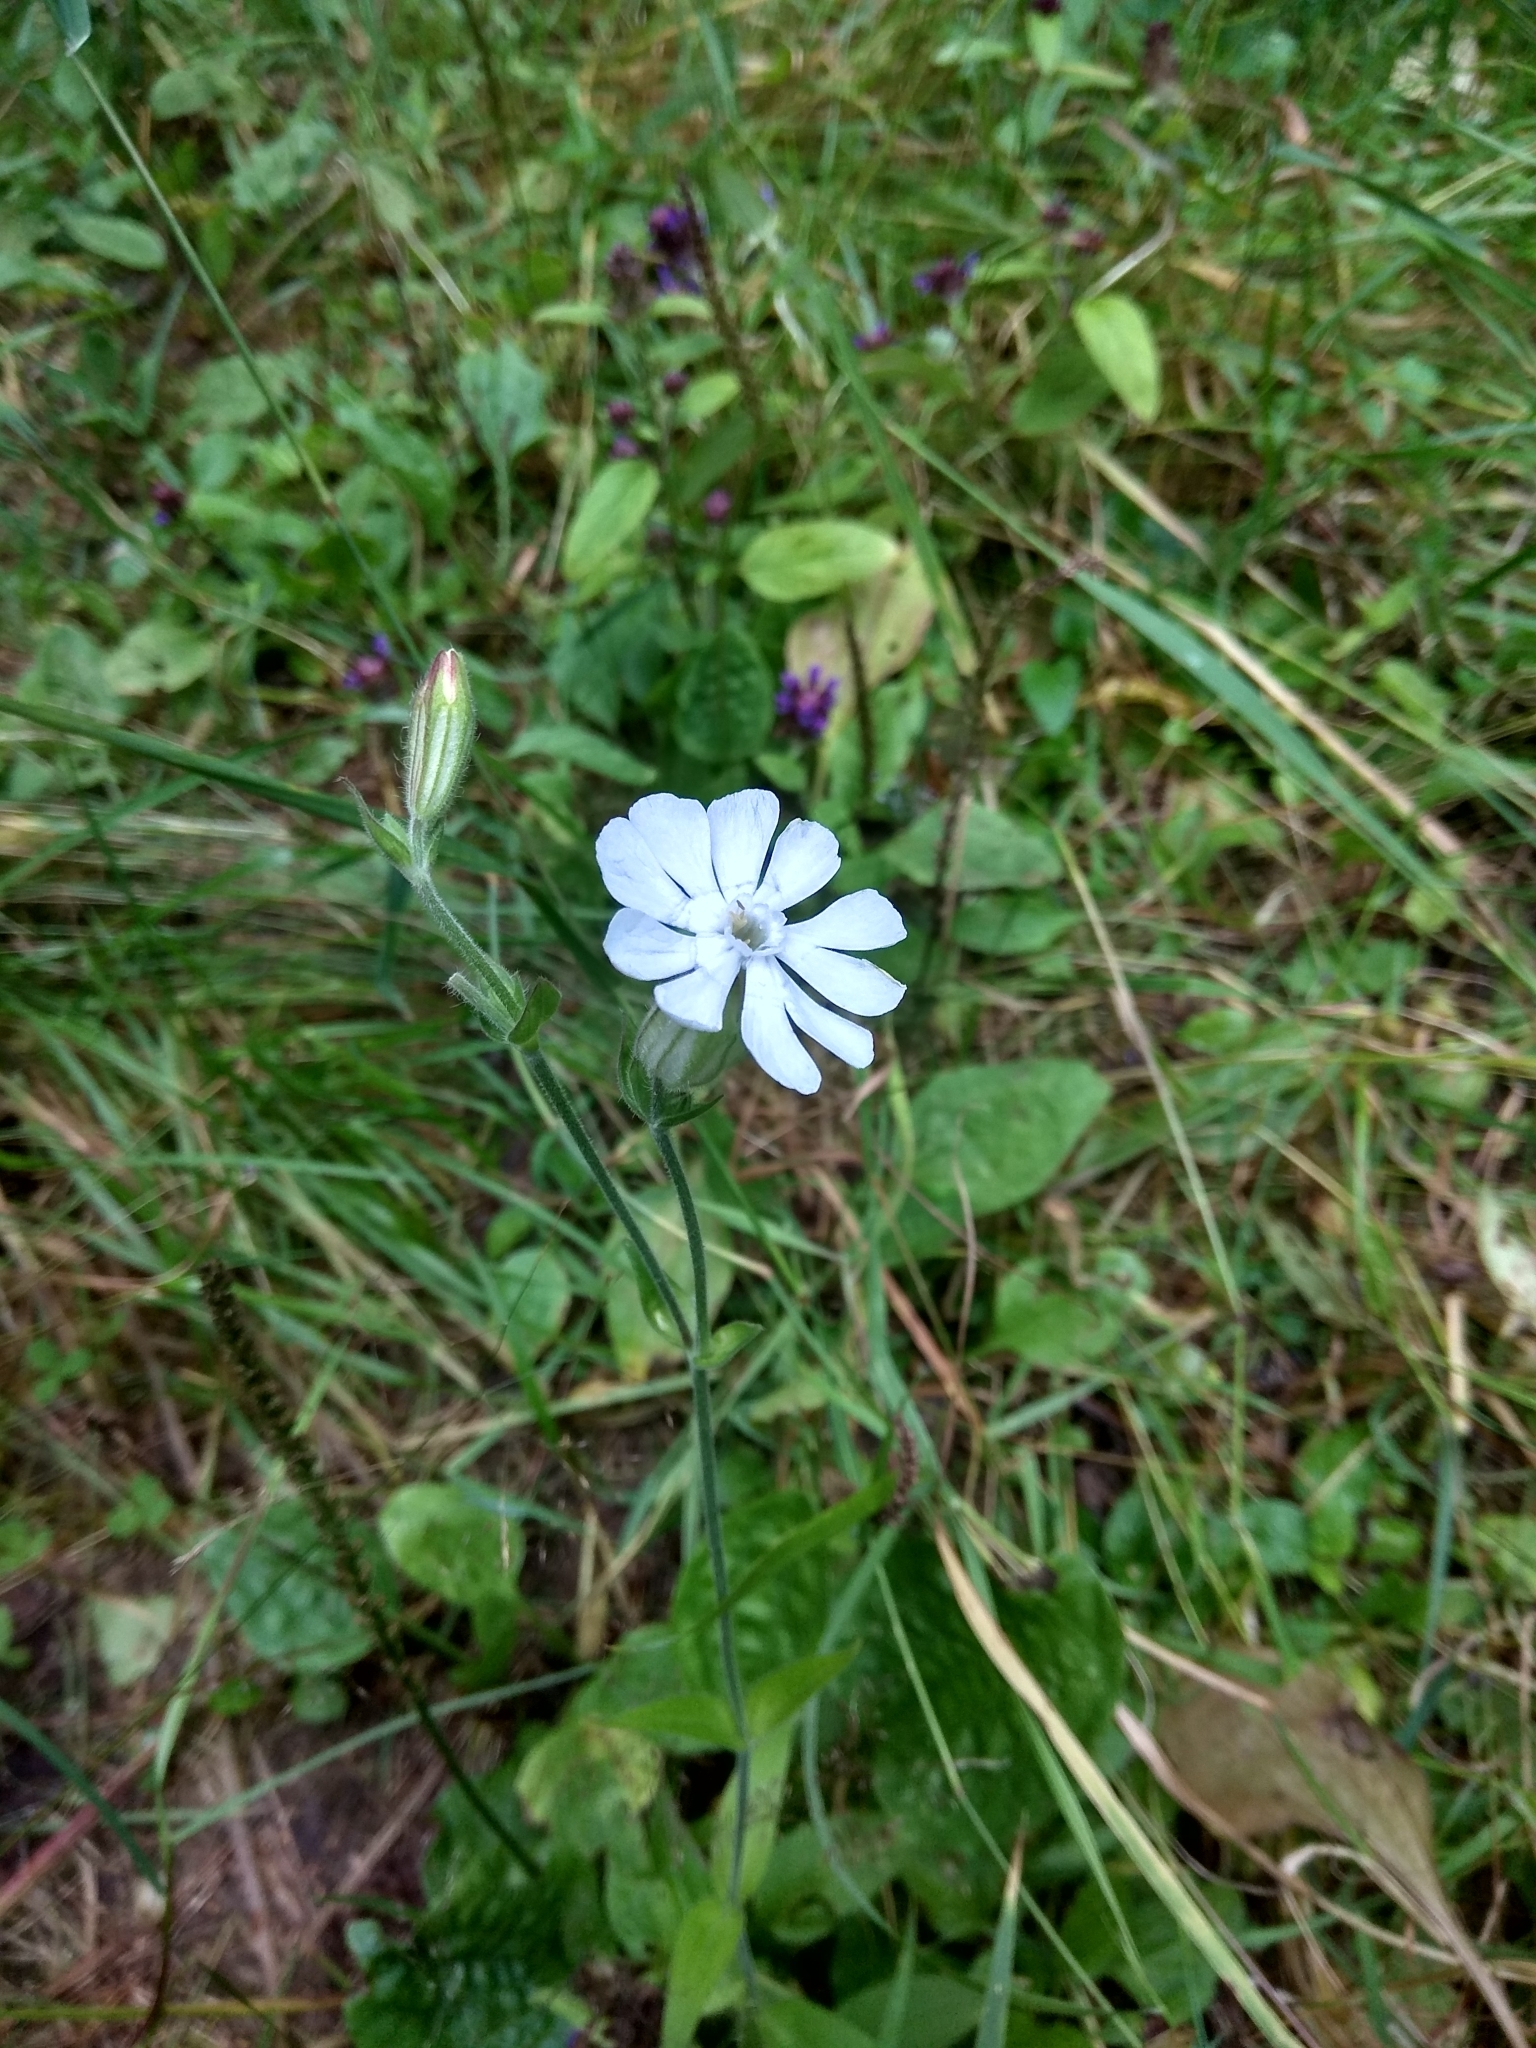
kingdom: Plantae
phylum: Tracheophyta
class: Magnoliopsida
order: Caryophyllales
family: Caryophyllaceae
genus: Silene
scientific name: Silene latifolia
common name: White campion
